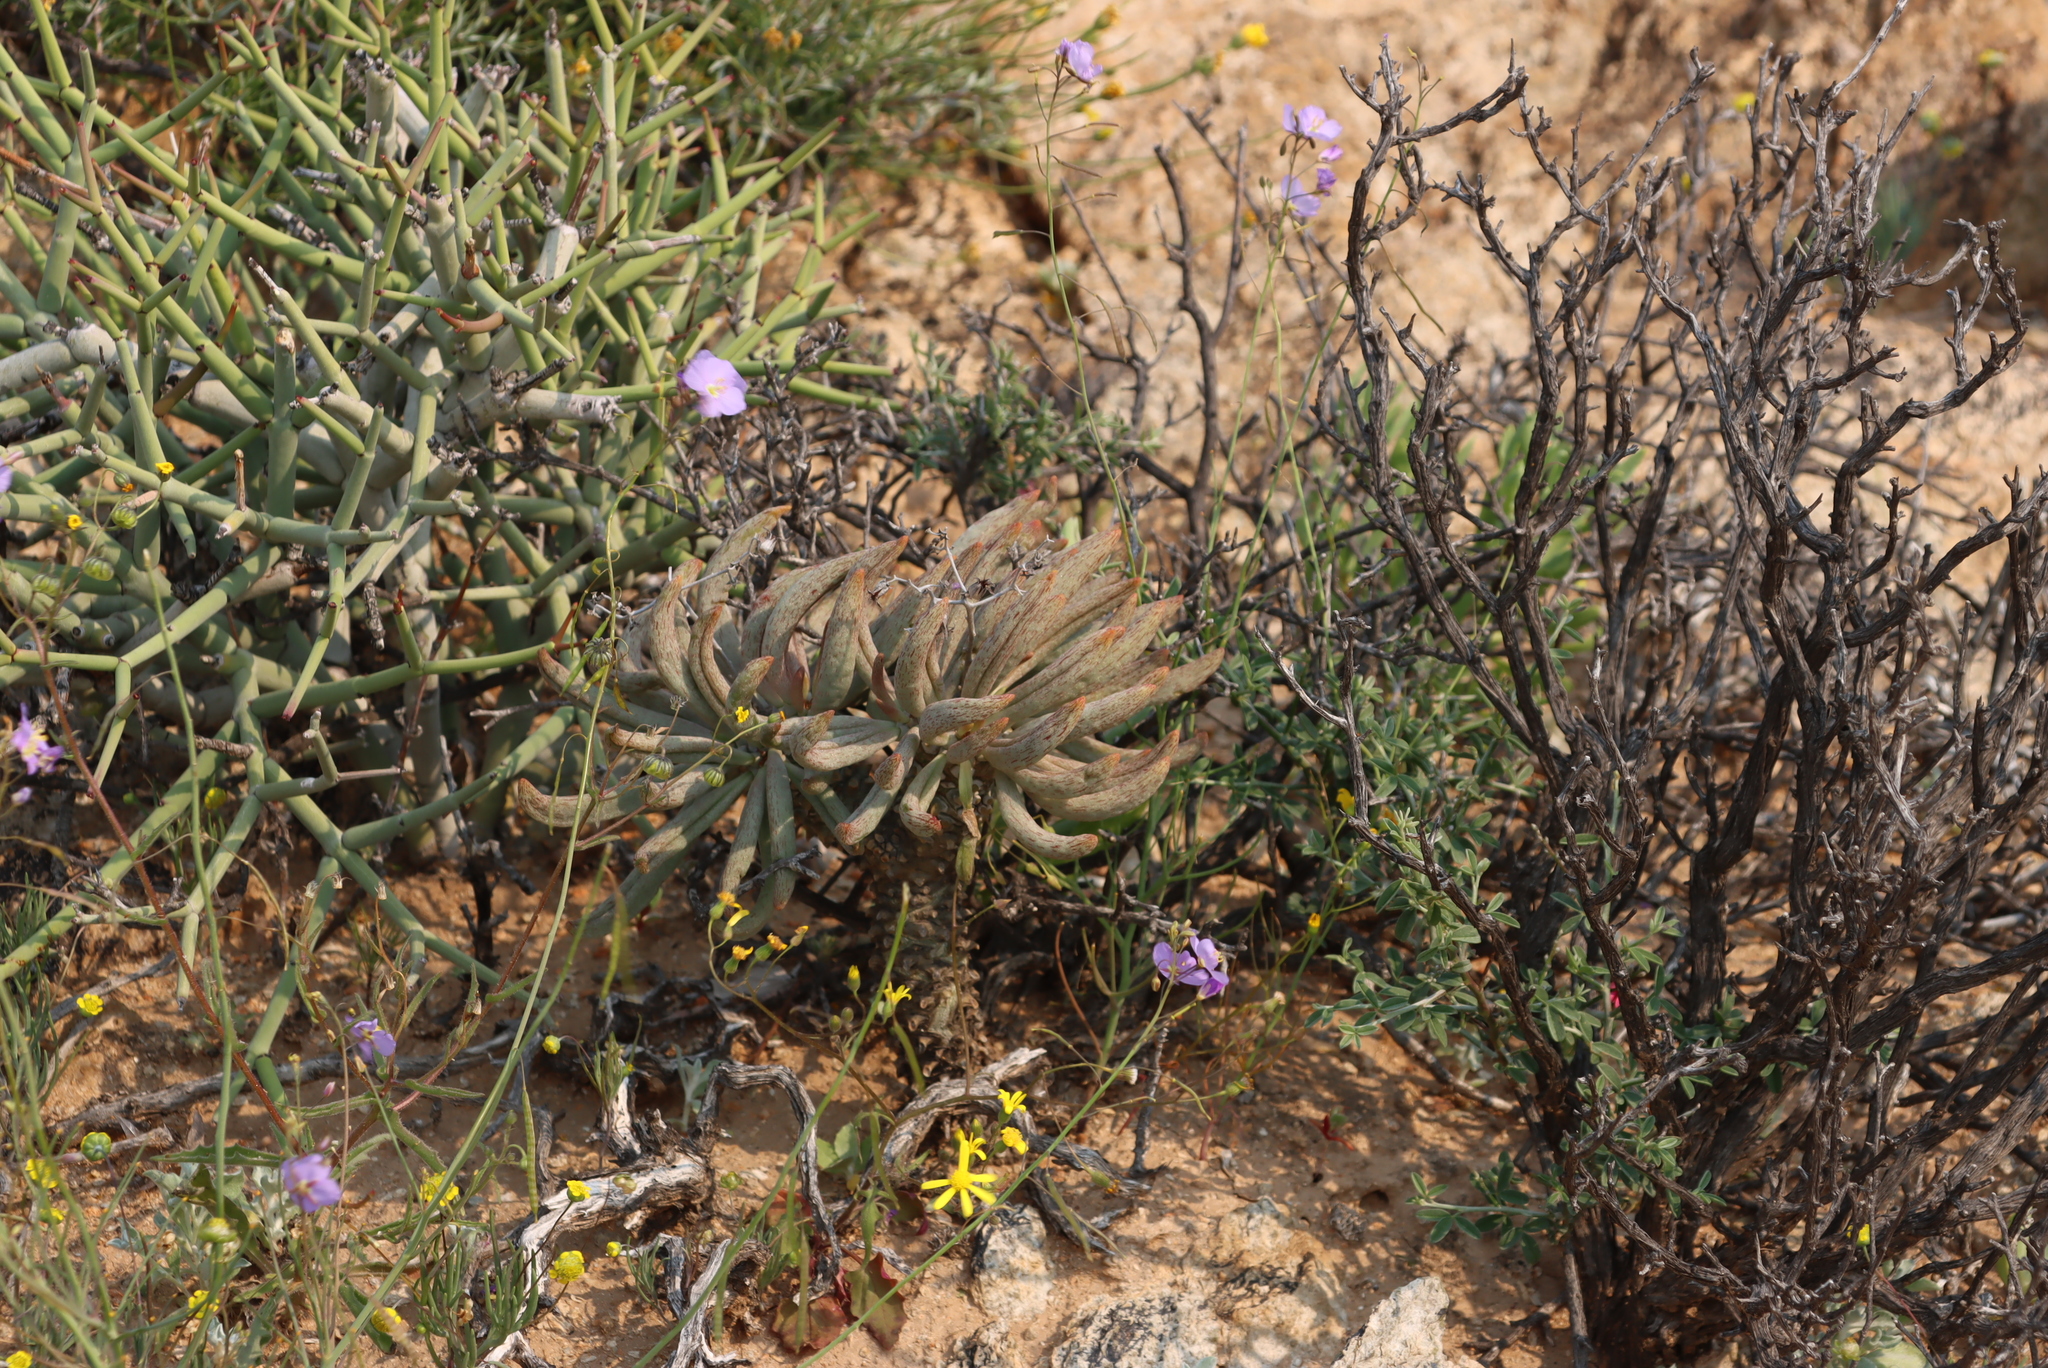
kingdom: Plantae
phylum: Tracheophyta
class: Magnoliopsida
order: Brassicales
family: Brassicaceae
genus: Heliophila
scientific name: Heliophila trifurca
